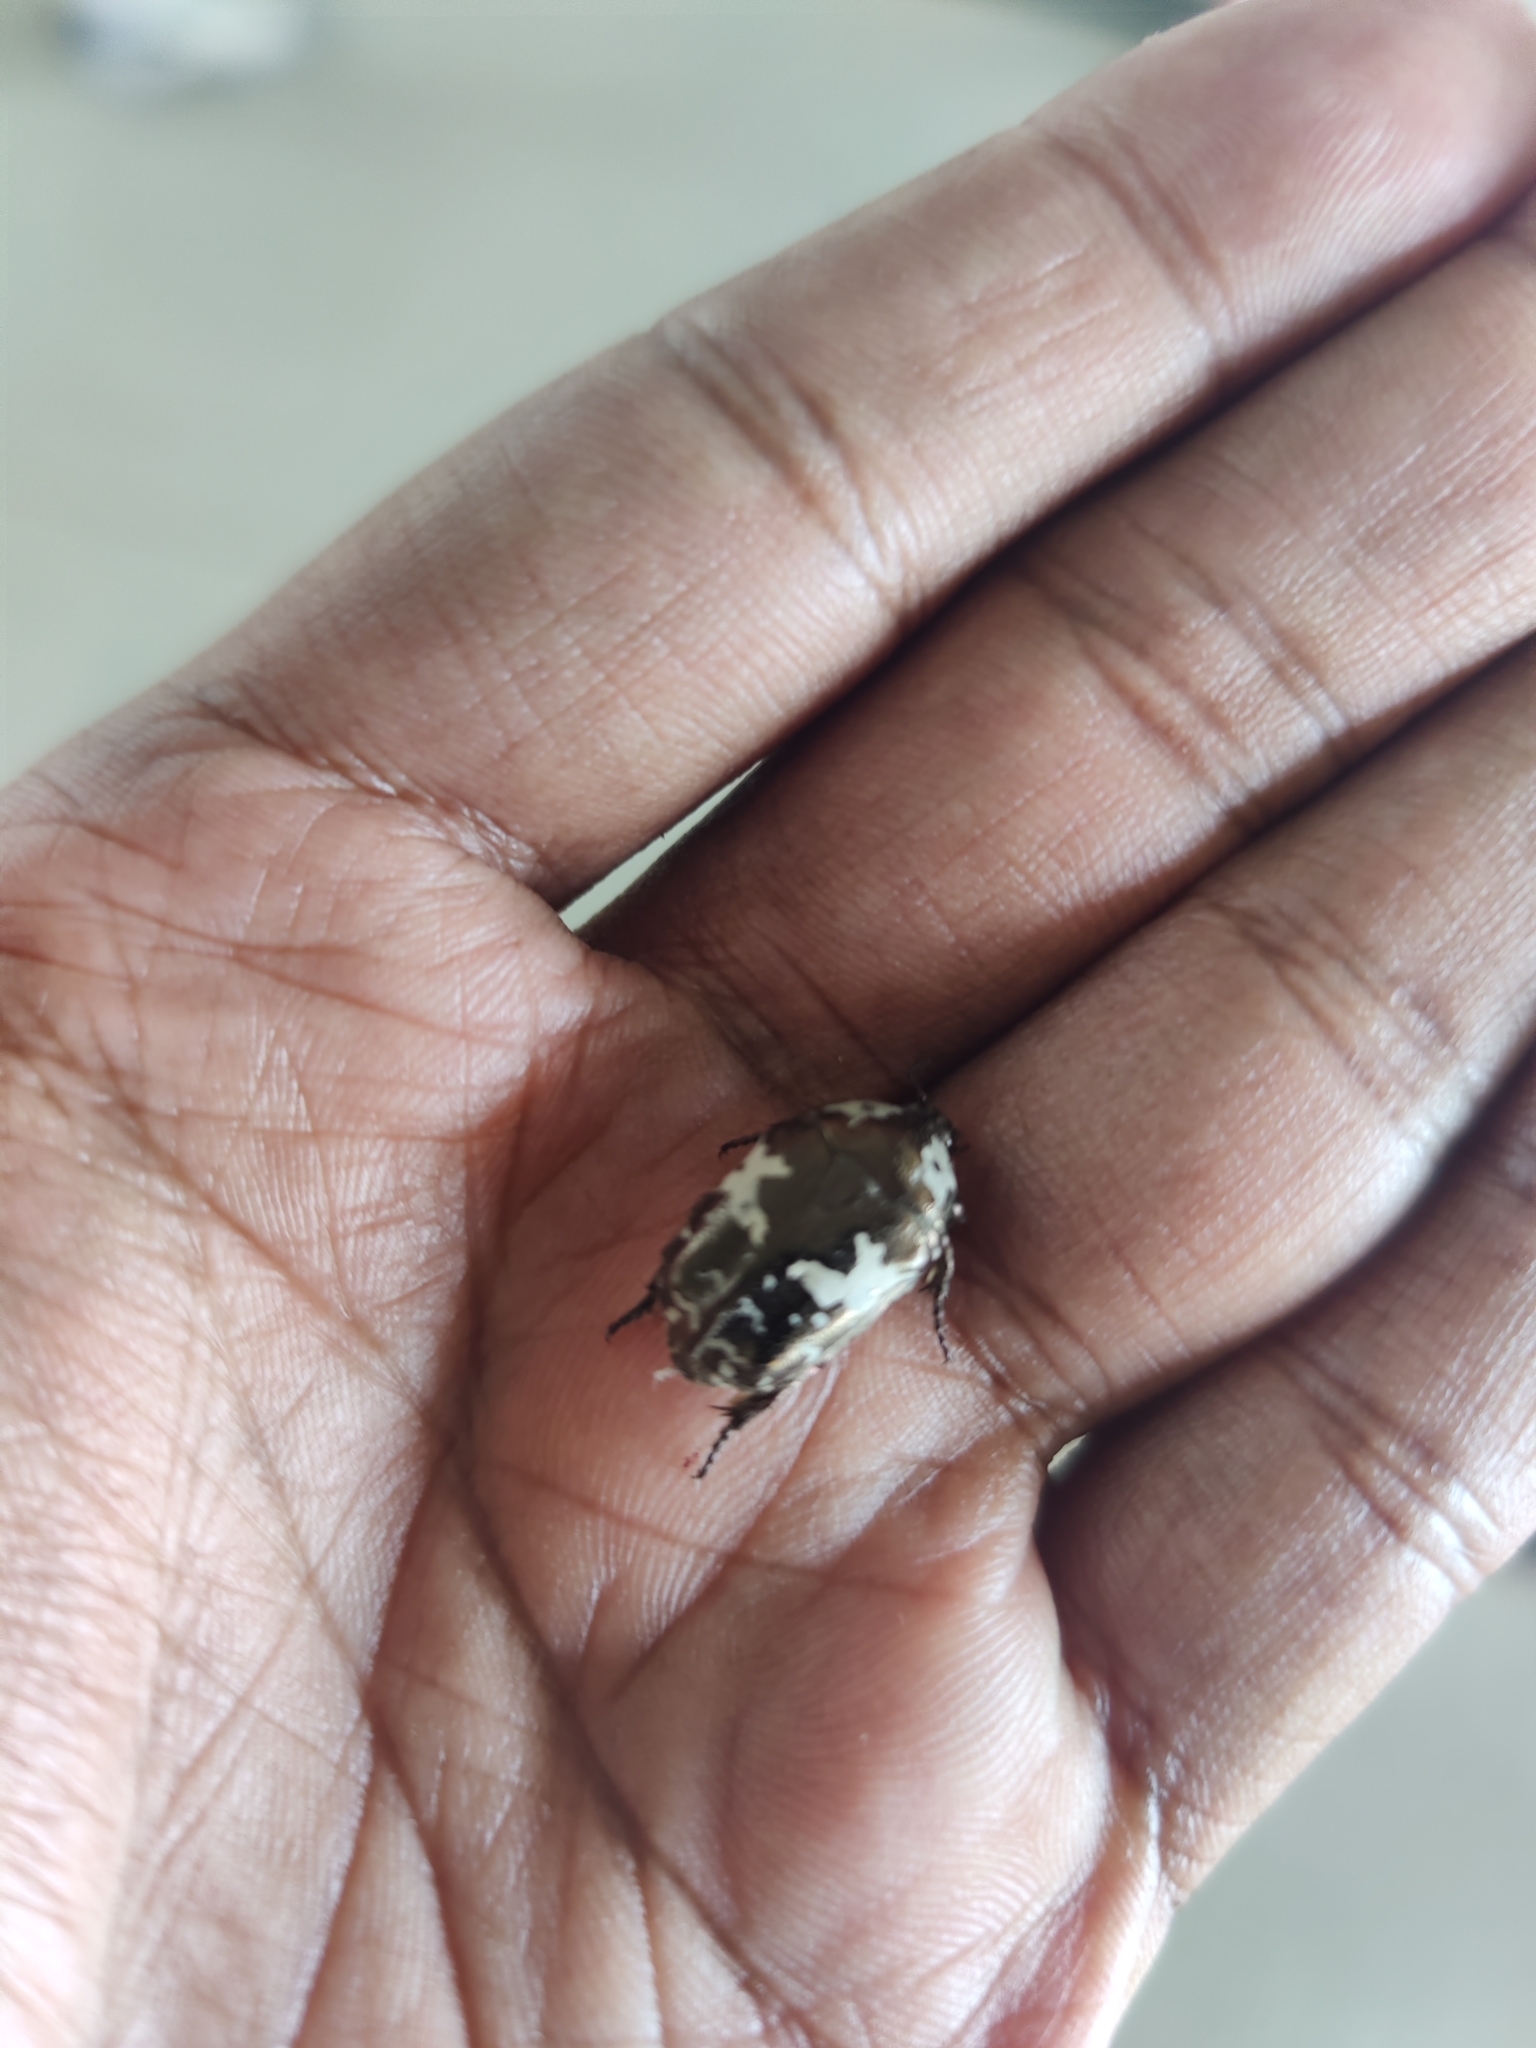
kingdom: Animalia
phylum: Arthropoda
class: Insecta
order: Coleoptera
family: Scarabaeidae
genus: Protaetia
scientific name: Protaetia aurichalcea
